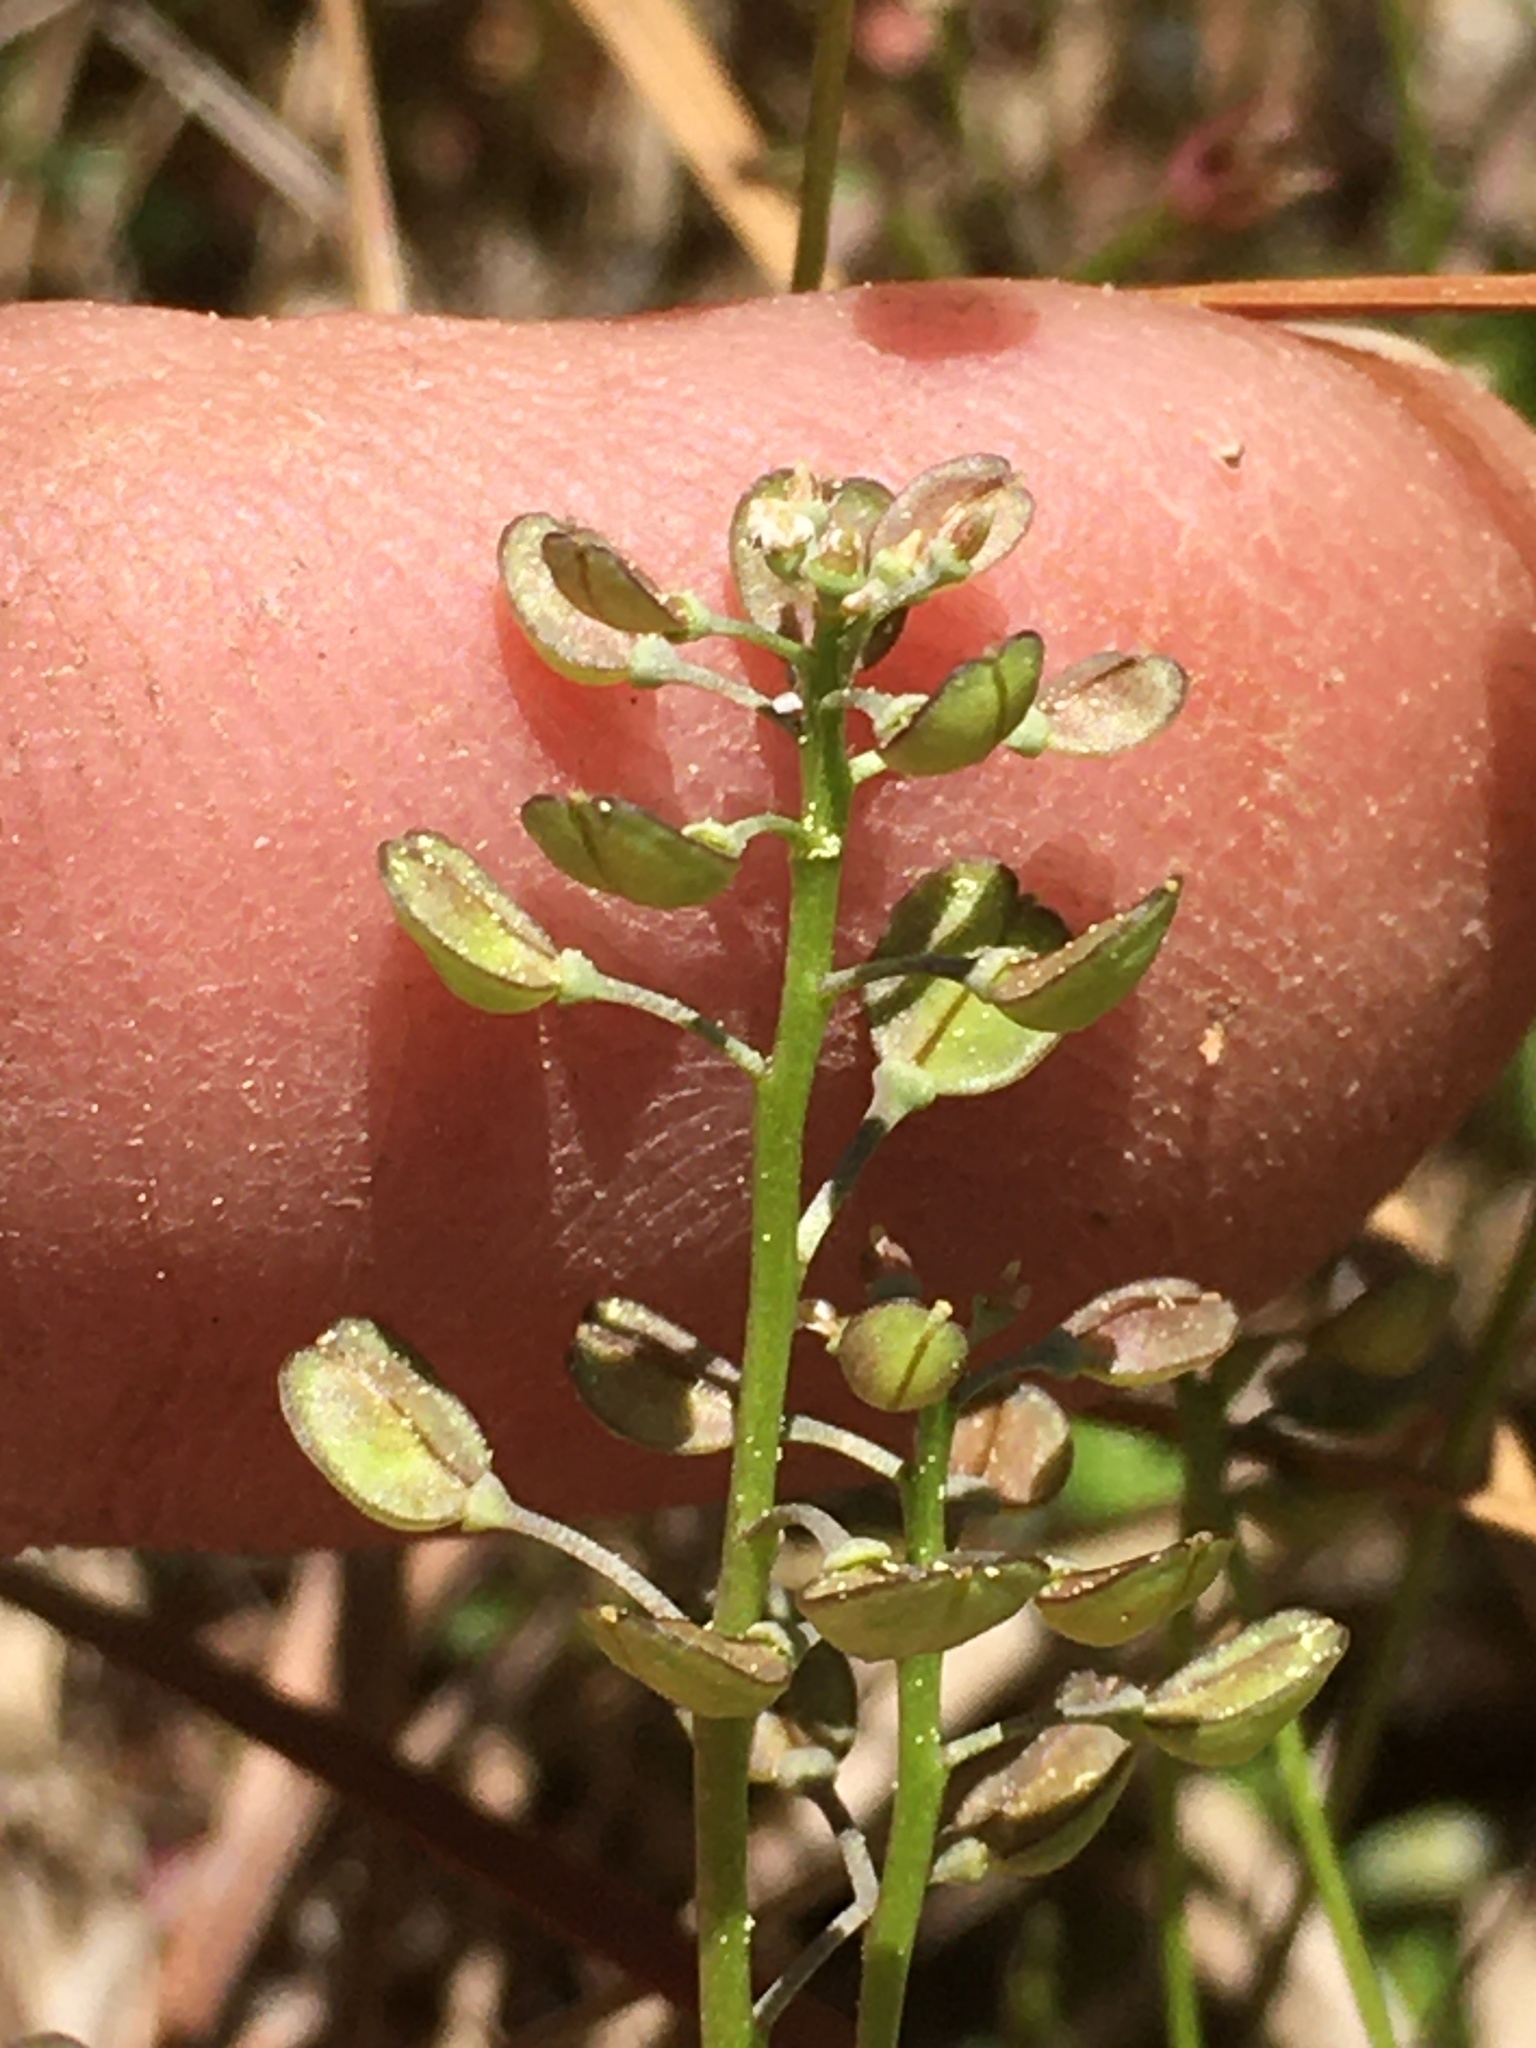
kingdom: Plantae
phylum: Tracheophyta
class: Magnoliopsida
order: Brassicales
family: Brassicaceae
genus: Teesdalia
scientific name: Teesdalia nudicaulis
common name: Shepherd's cress
